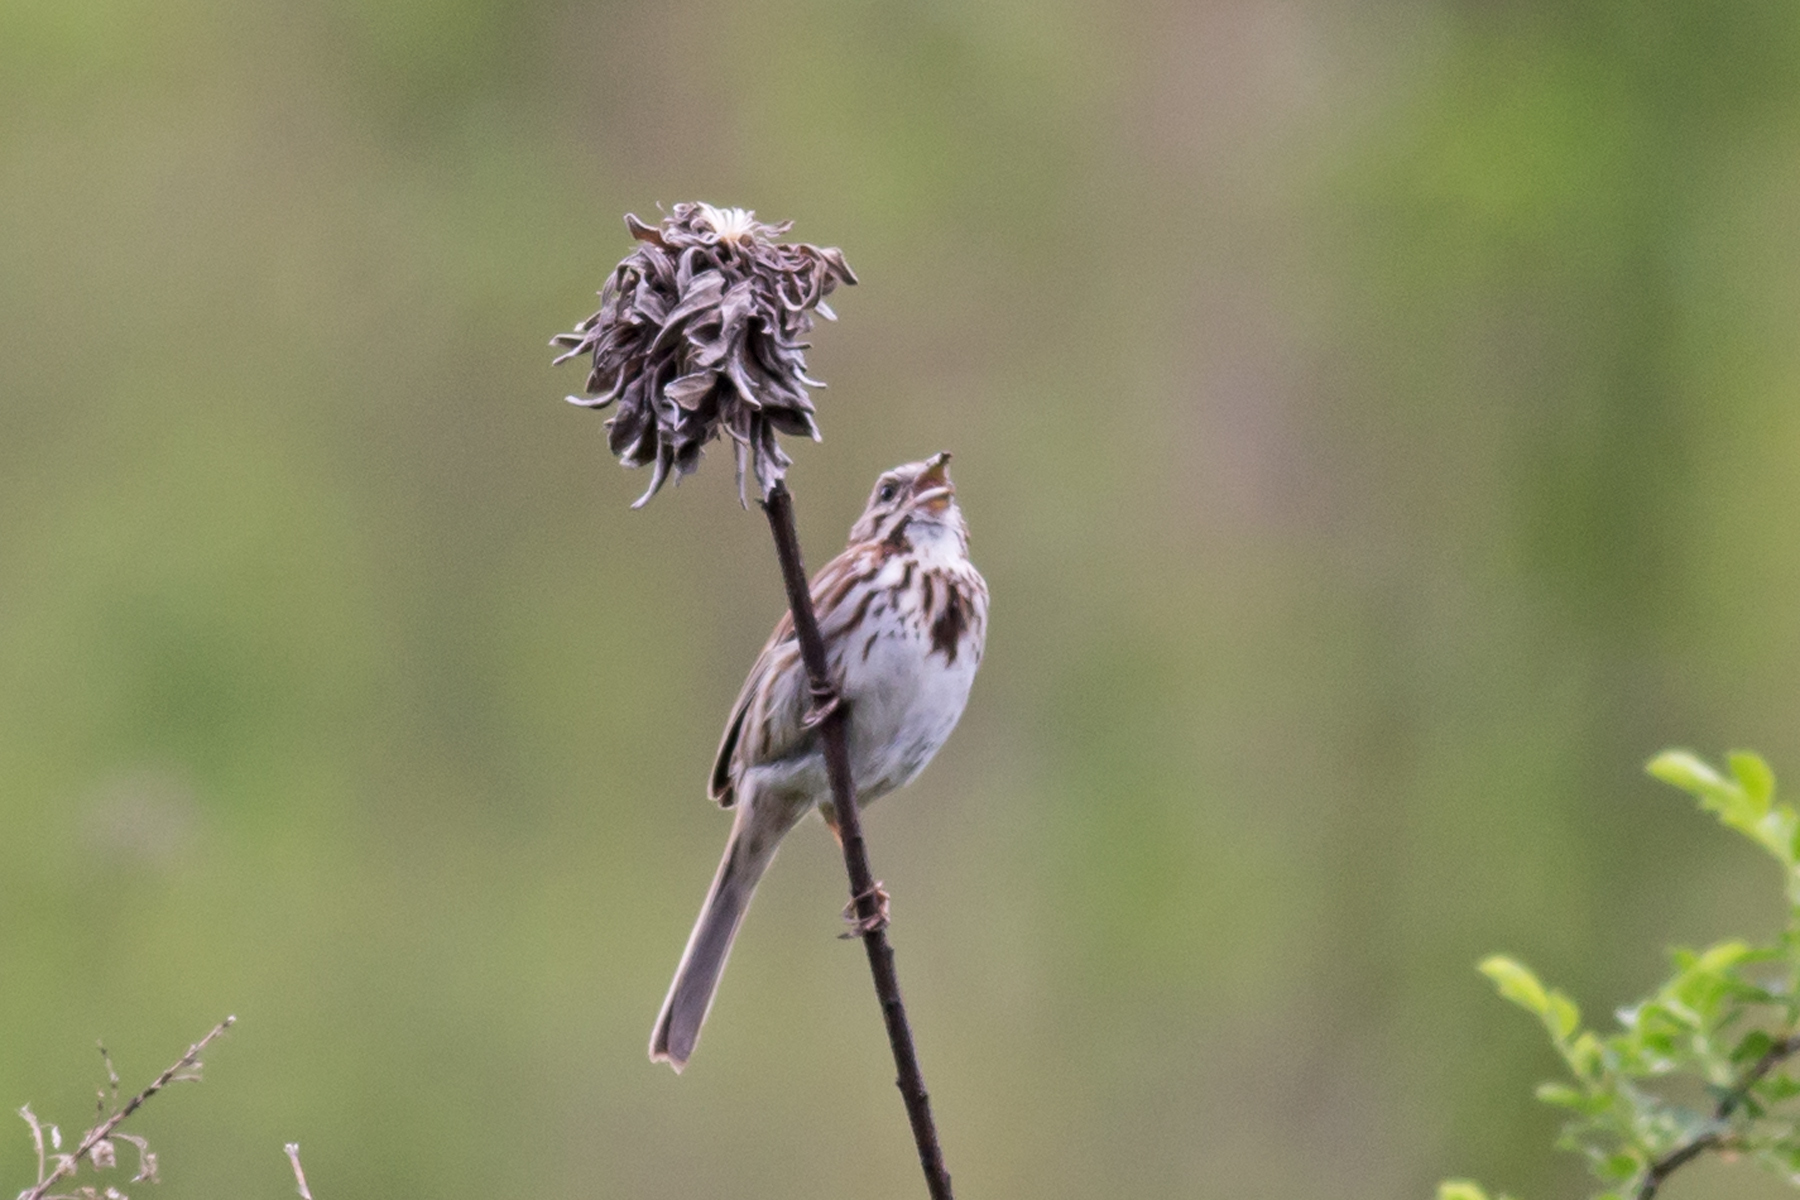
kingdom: Animalia
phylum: Chordata
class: Aves
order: Passeriformes
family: Passerellidae
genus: Melospiza
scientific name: Melospiza melodia
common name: Song sparrow
